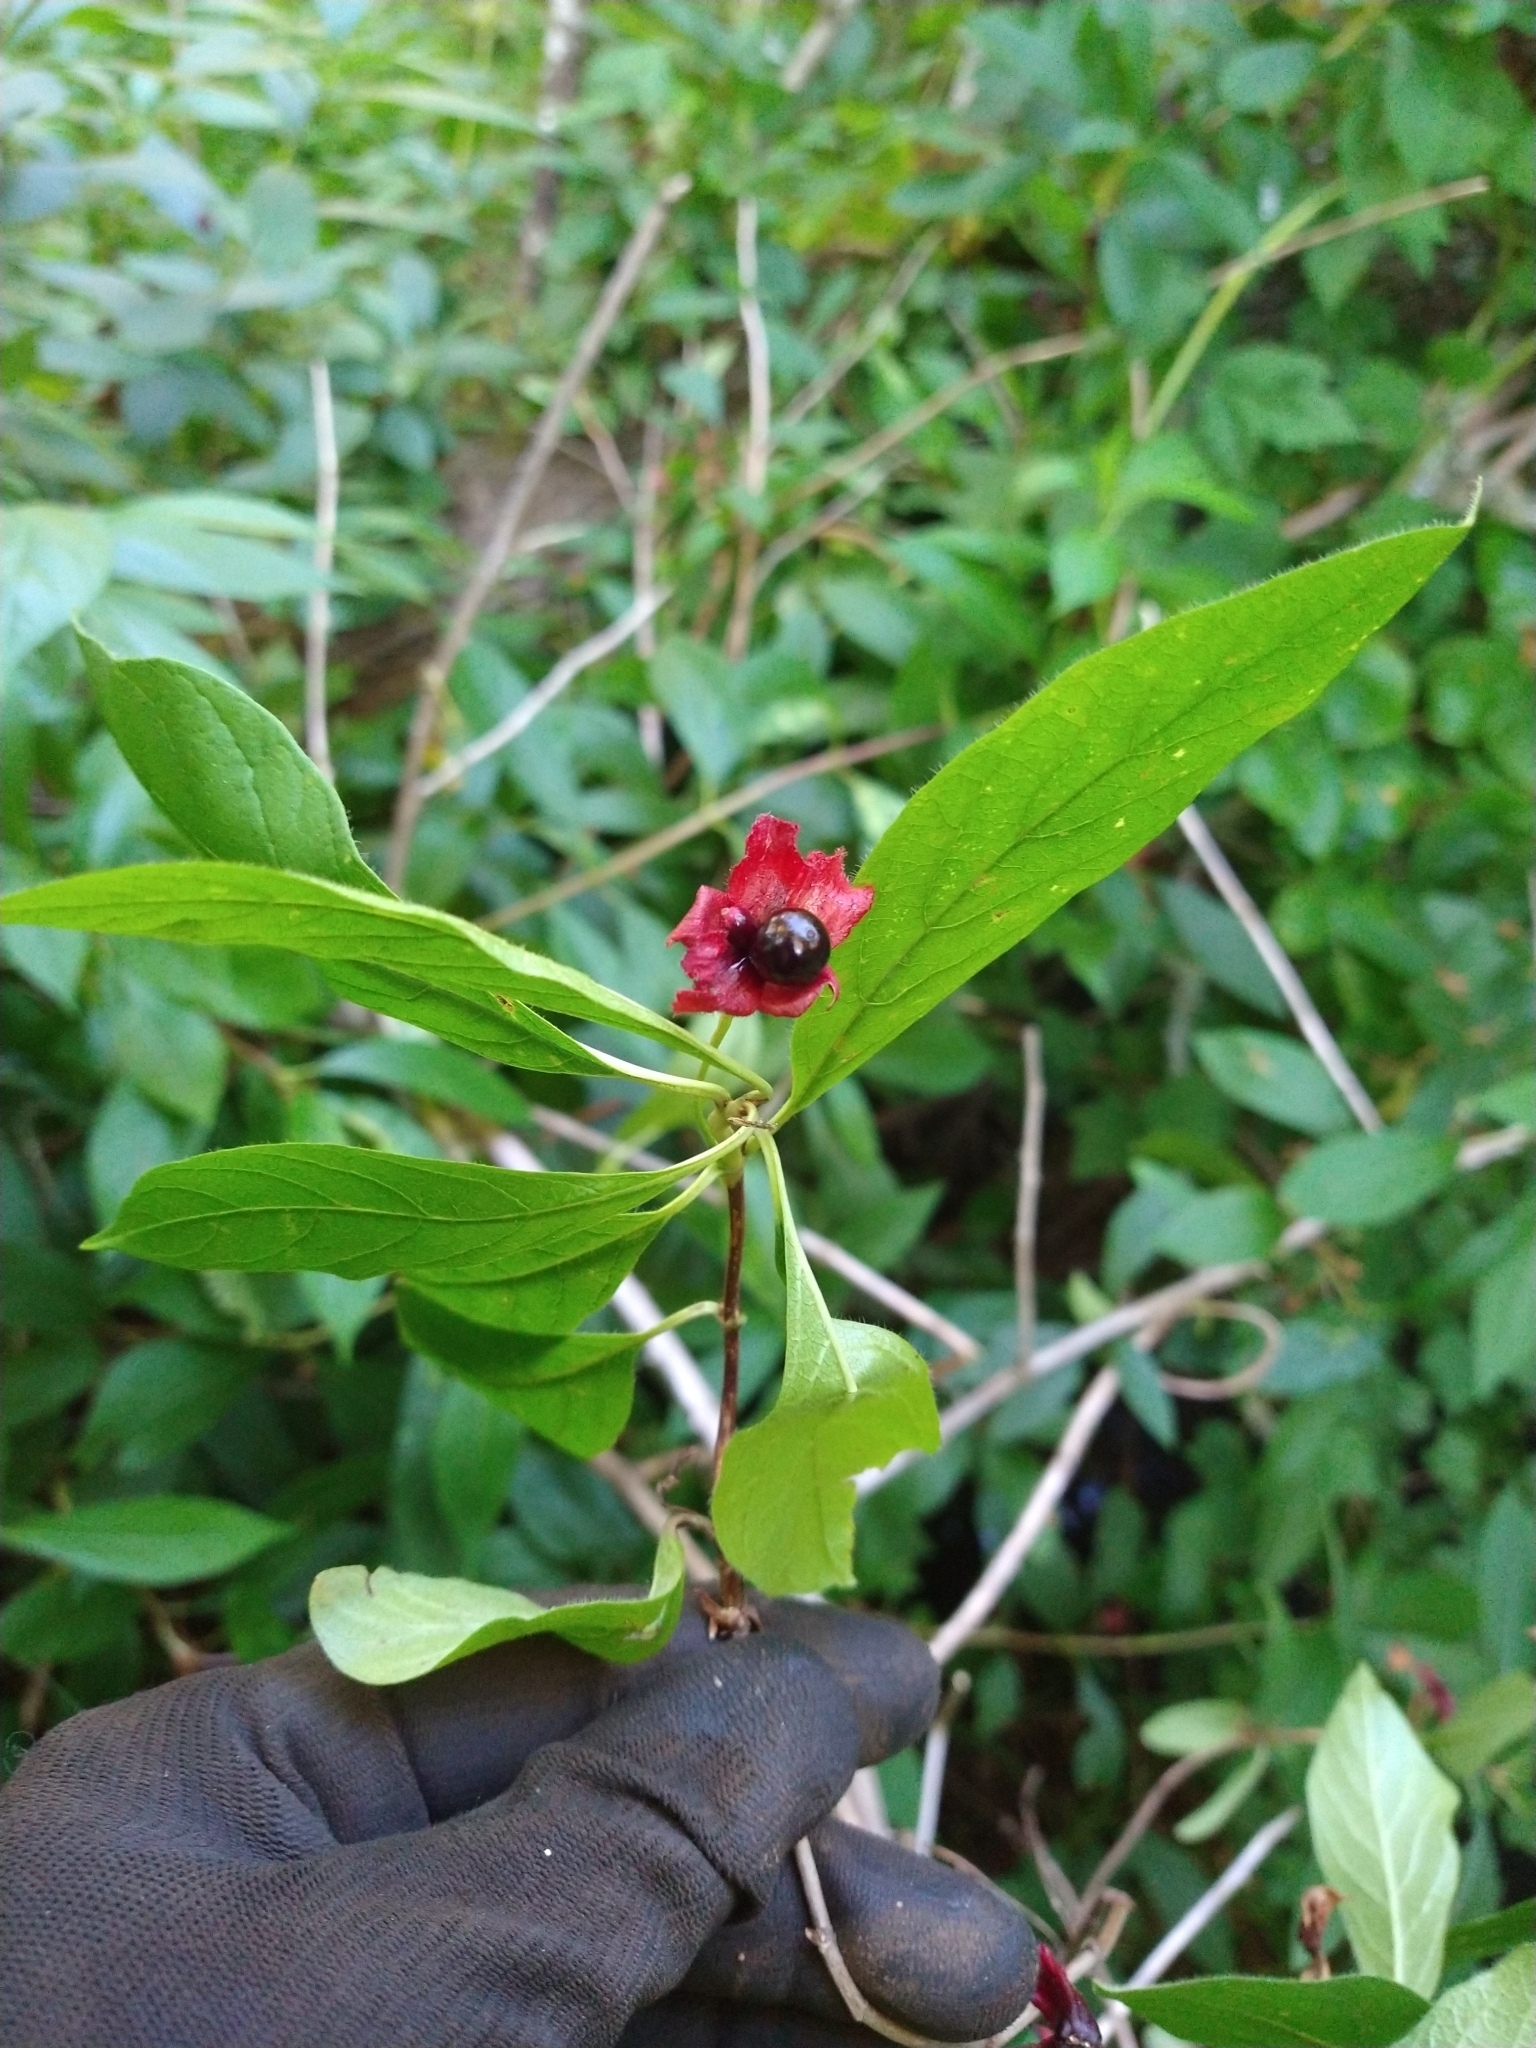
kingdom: Plantae
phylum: Tracheophyta
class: Magnoliopsida
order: Dipsacales
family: Caprifoliaceae
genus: Lonicera
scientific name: Lonicera involucrata
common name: Californian honeysuckle
